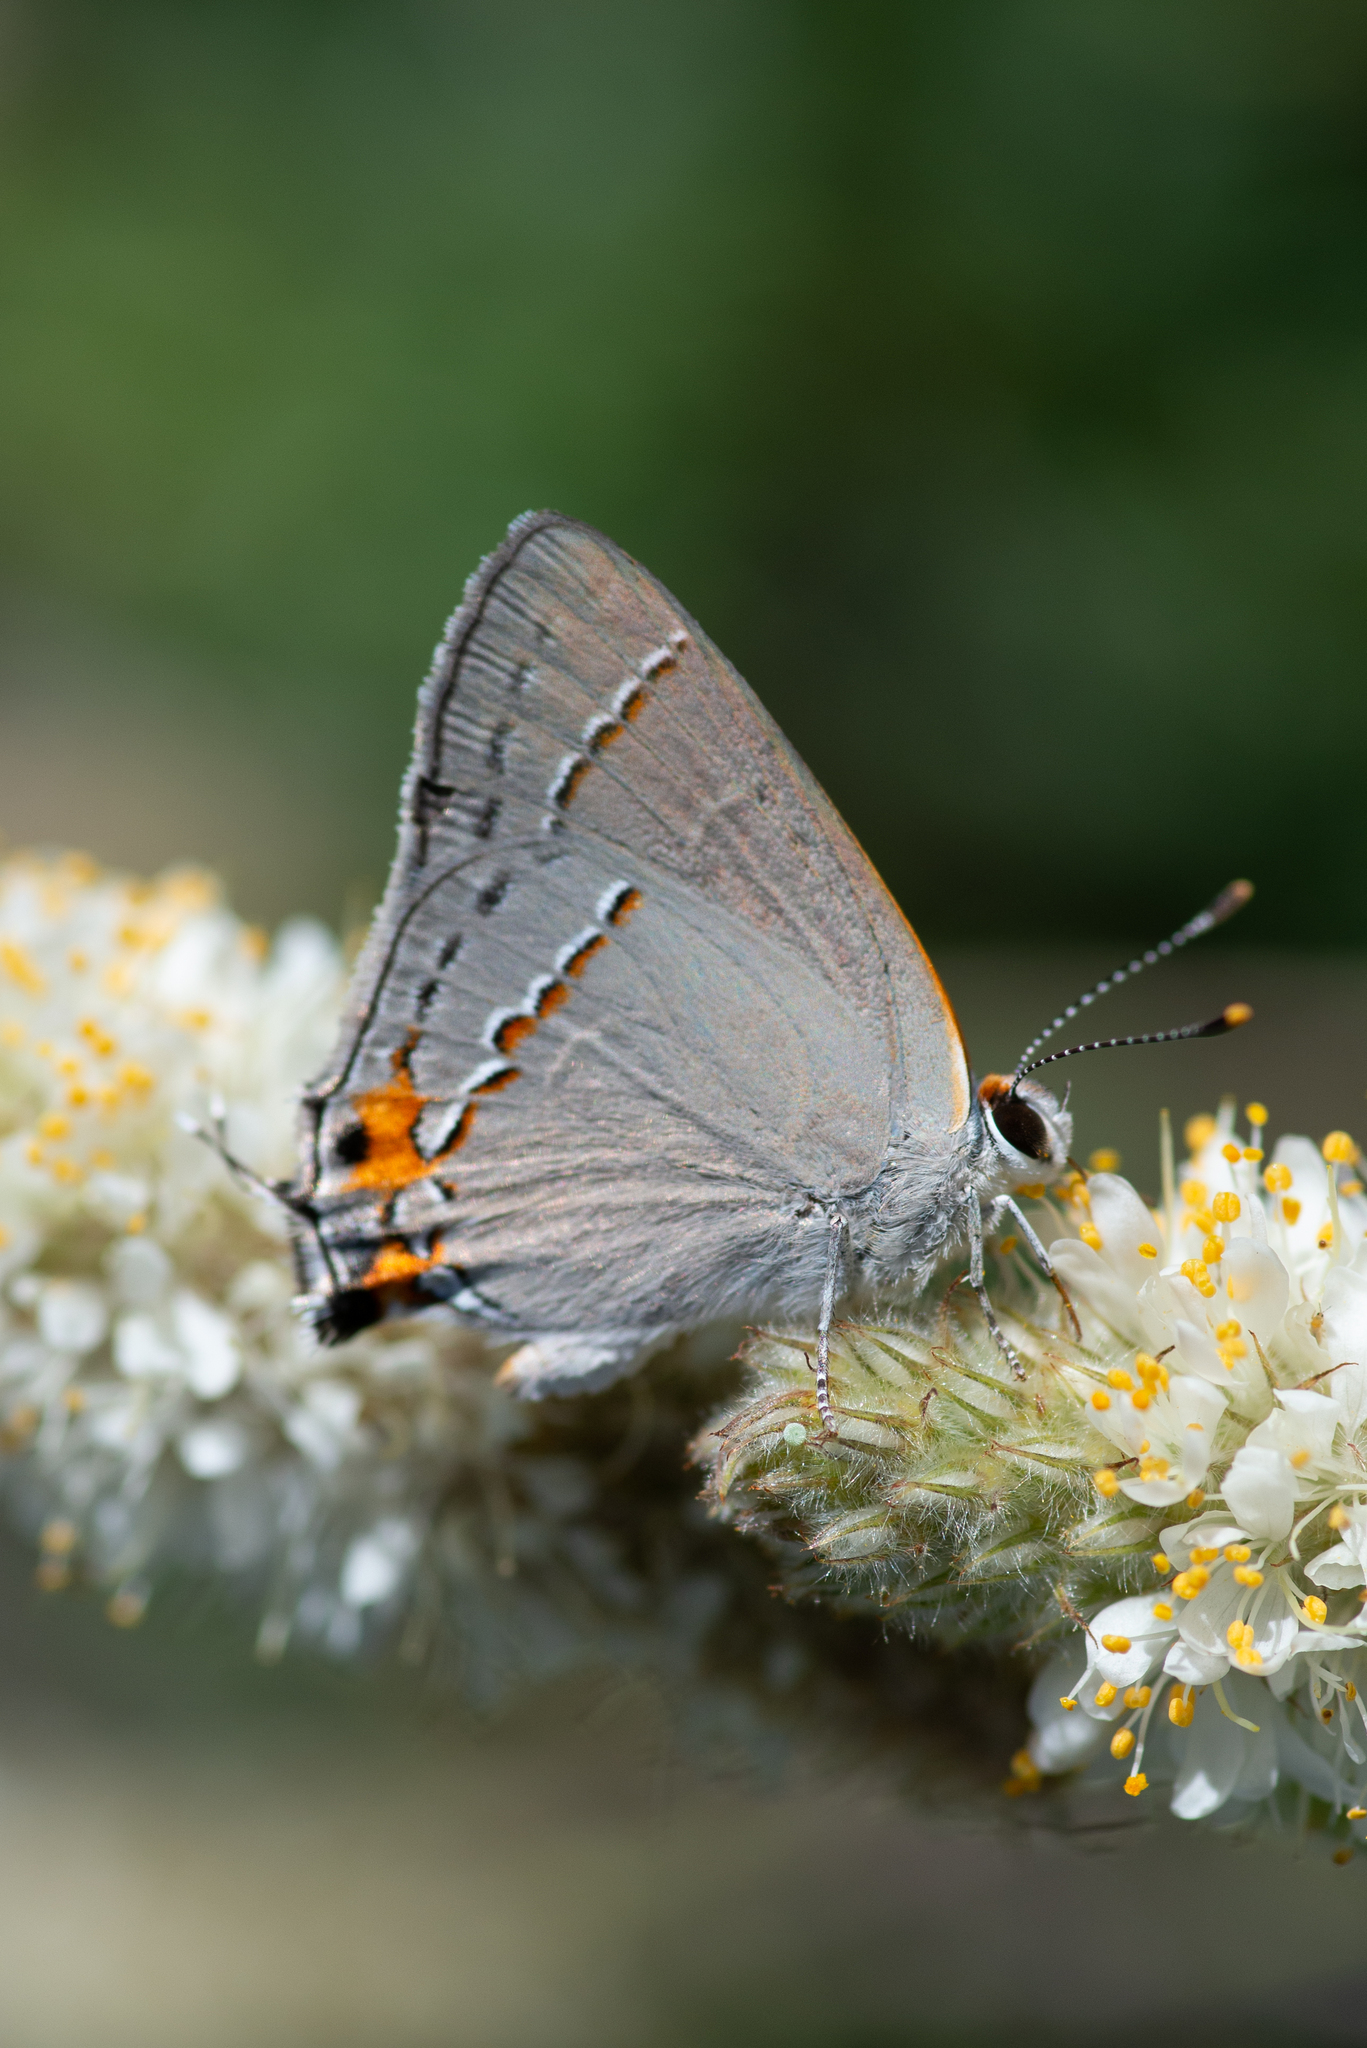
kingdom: Animalia
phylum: Arthropoda
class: Insecta
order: Lepidoptera
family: Lycaenidae
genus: Strymon
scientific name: Strymon melinus
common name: Gray hairstreak
